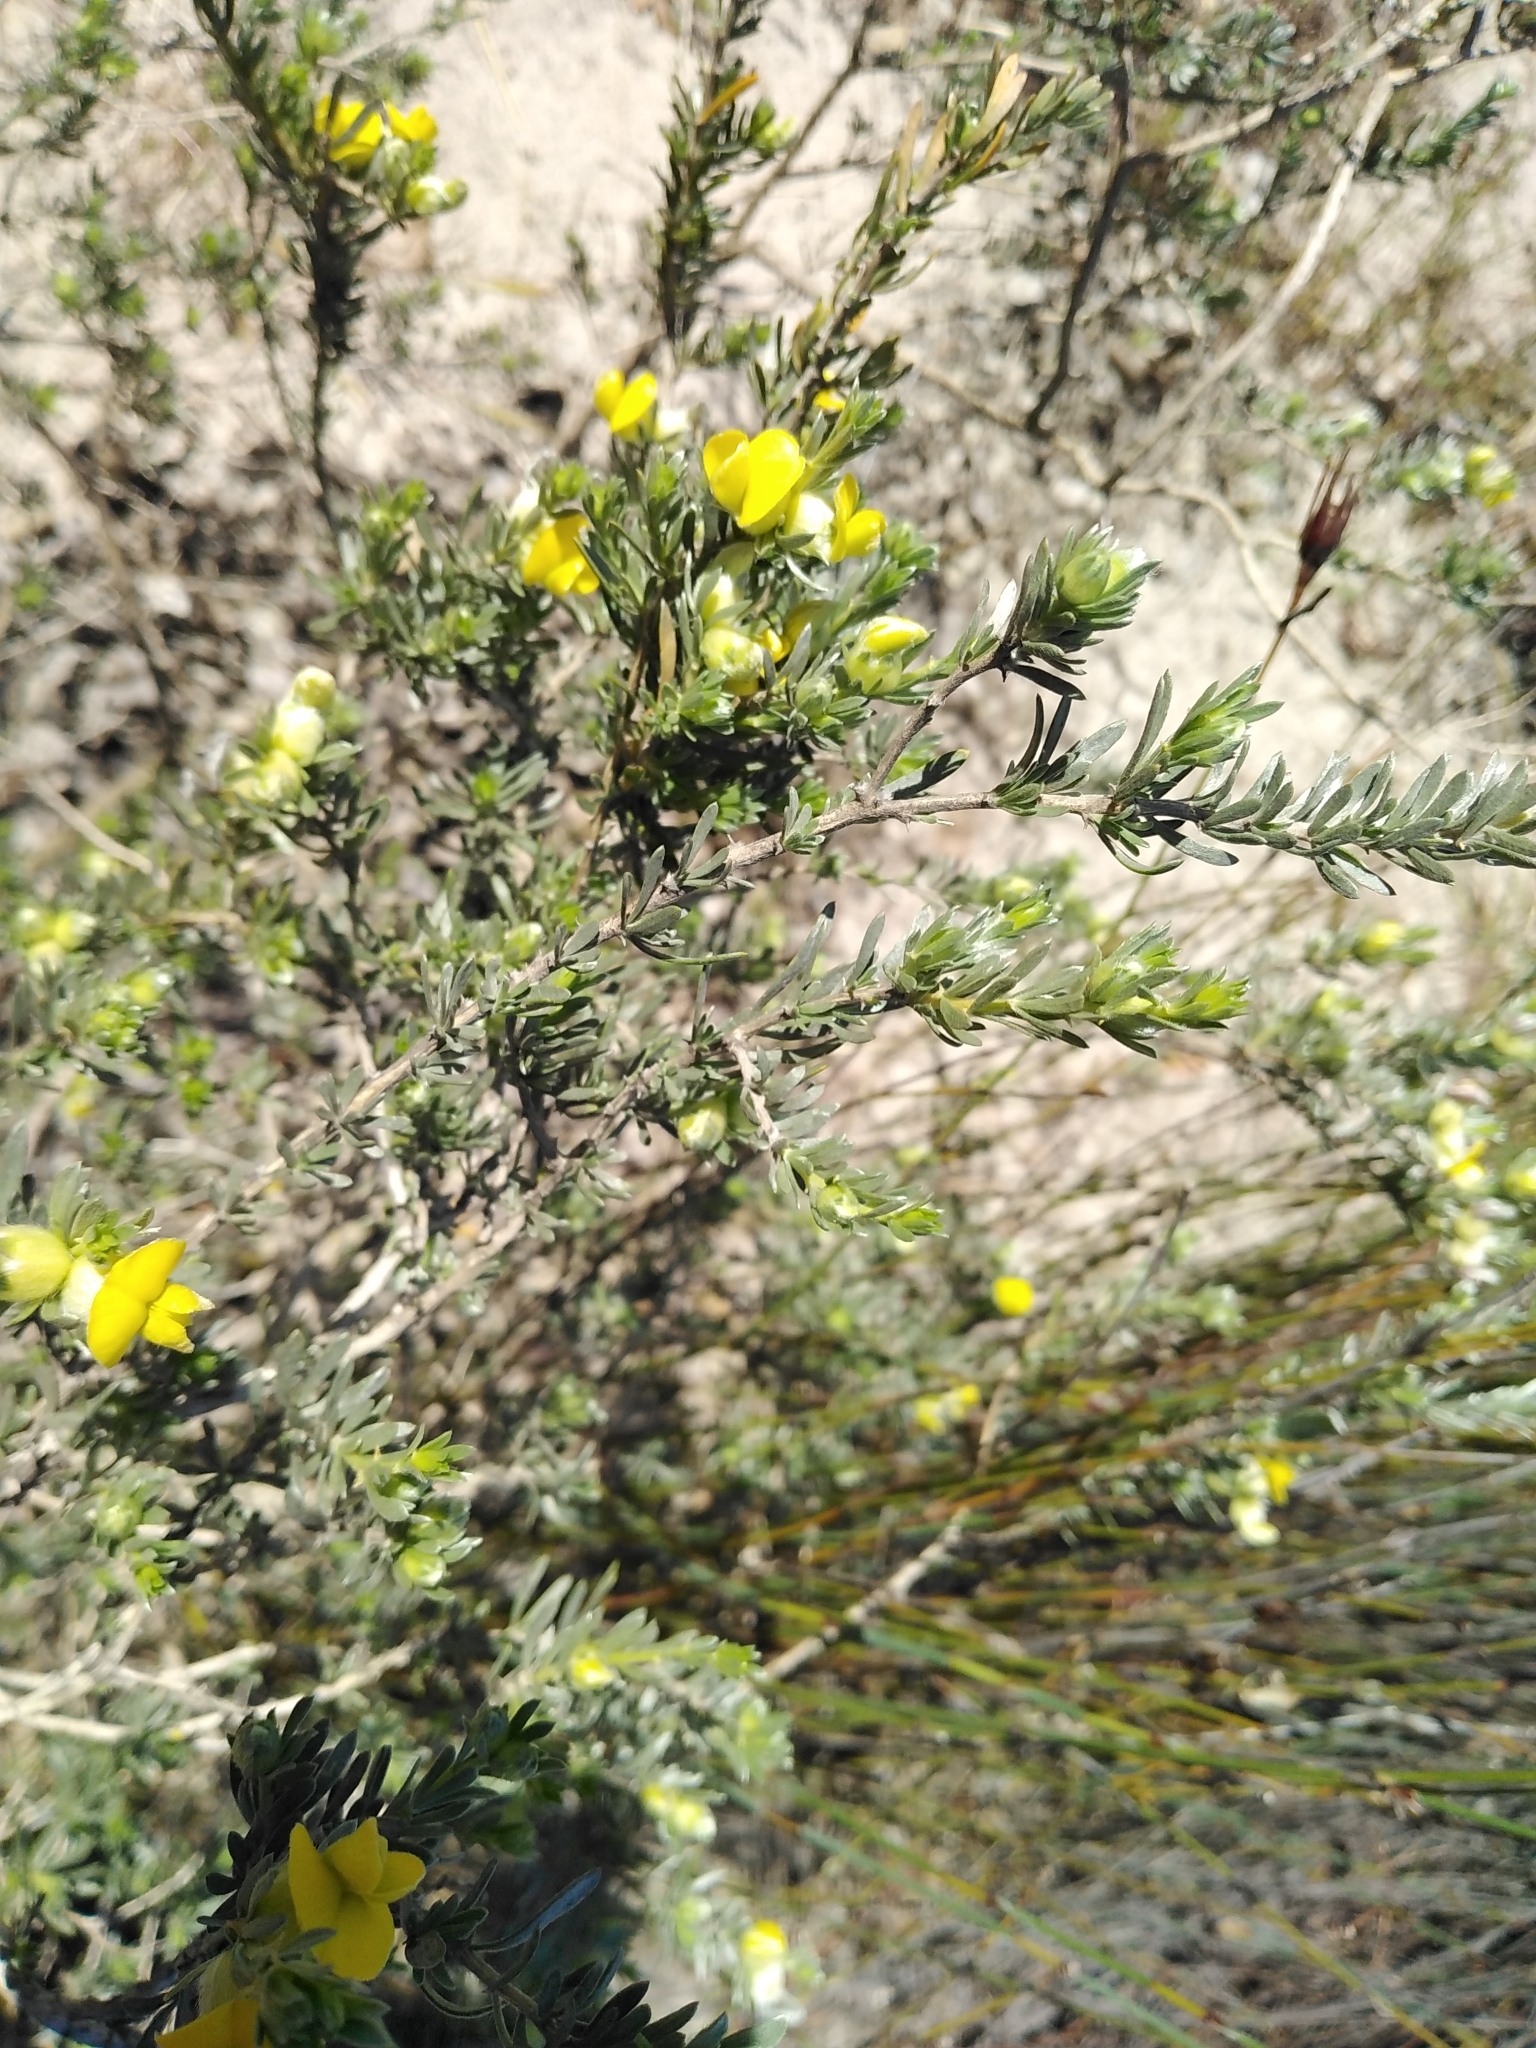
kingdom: Plantae
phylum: Tracheophyta
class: Magnoliopsida
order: Fabales
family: Fabaceae
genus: Aspalathus
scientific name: Aspalathus ternata
